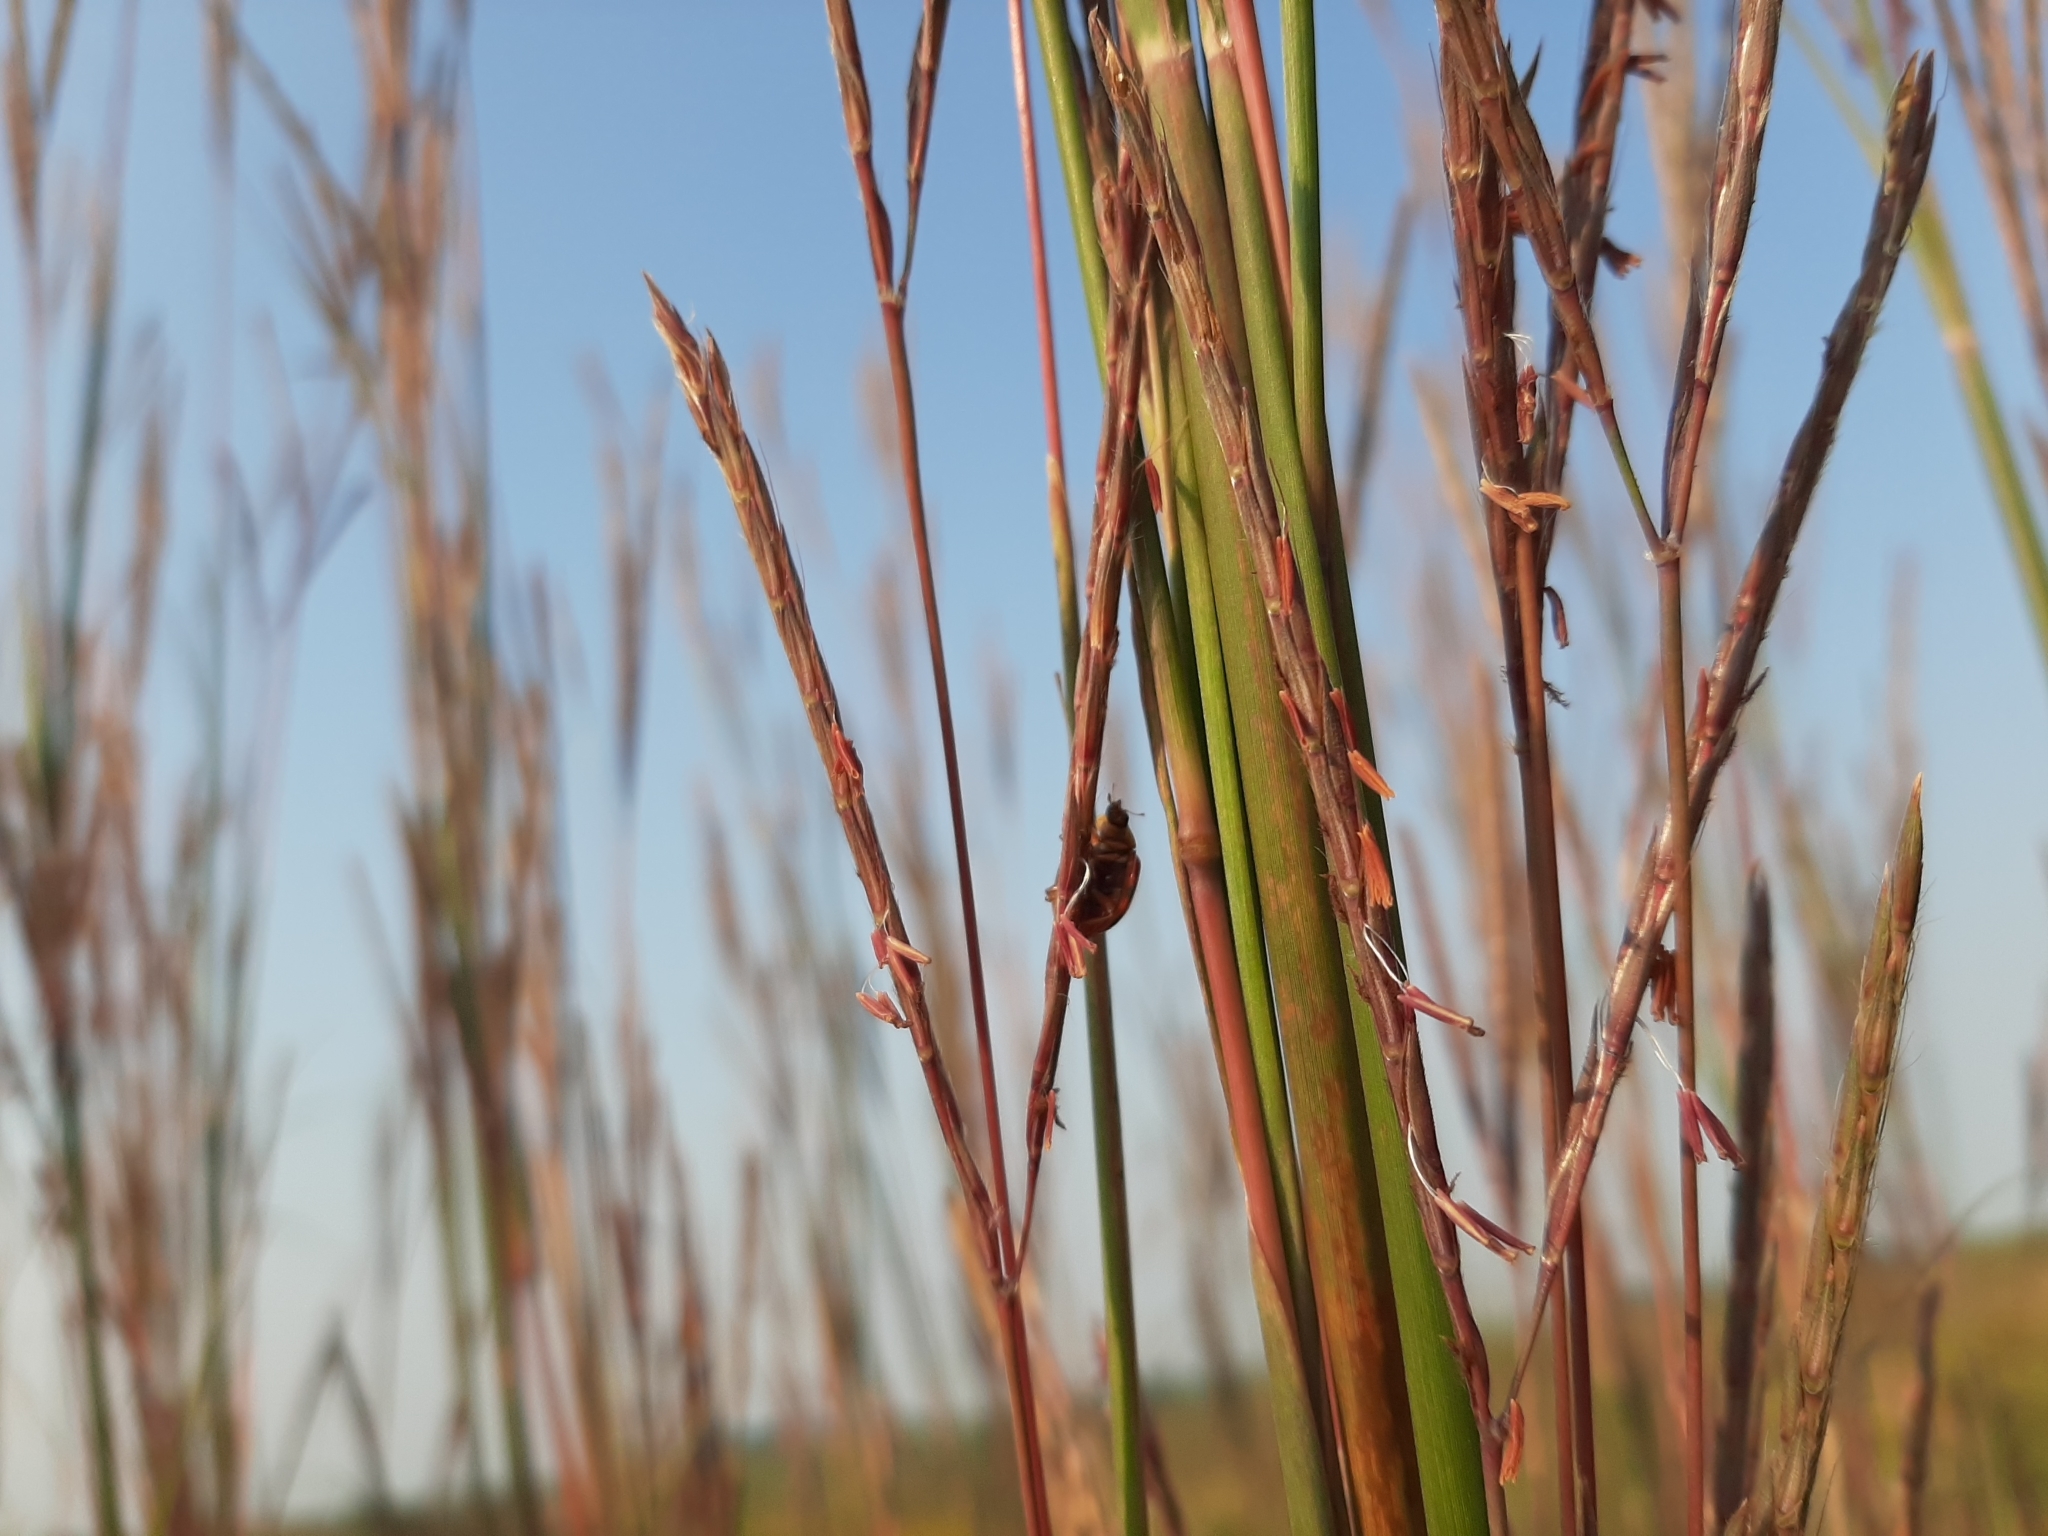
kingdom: Animalia
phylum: Arthropoda
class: Insecta
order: Coleoptera
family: Coccinellidae
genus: Harmonia
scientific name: Harmonia axyridis
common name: Harlequin ladybird
